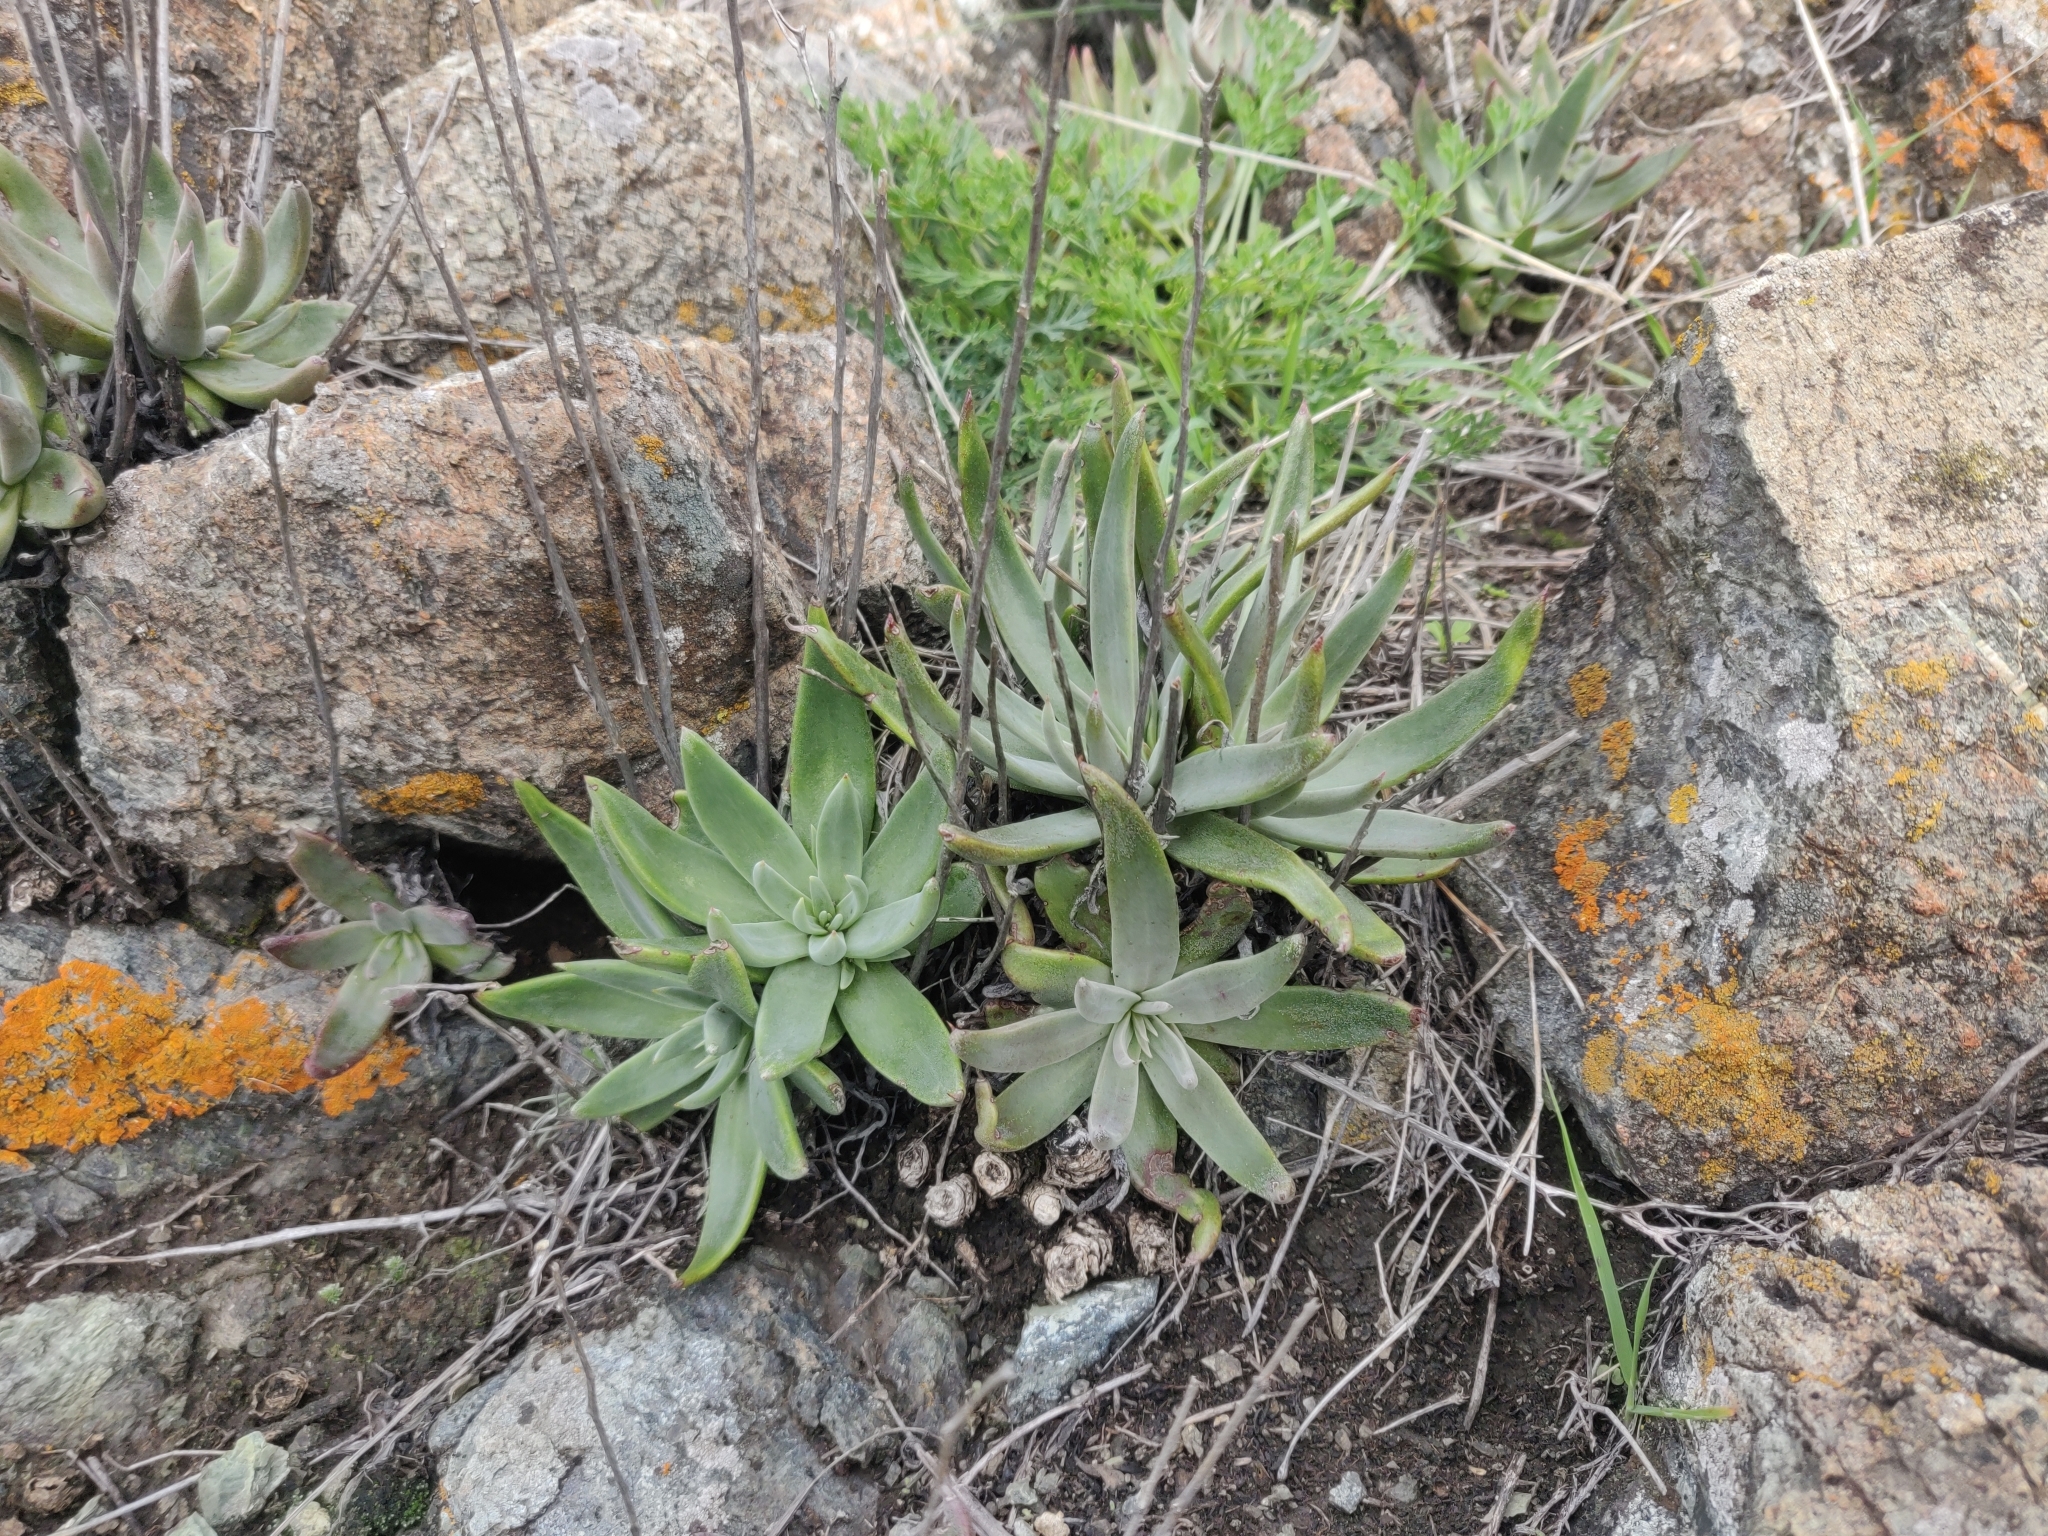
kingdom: Plantae
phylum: Tracheophyta
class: Magnoliopsida
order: Saxifragales
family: Crassulaceae
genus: Dudleya
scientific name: Dudleya abramsii
